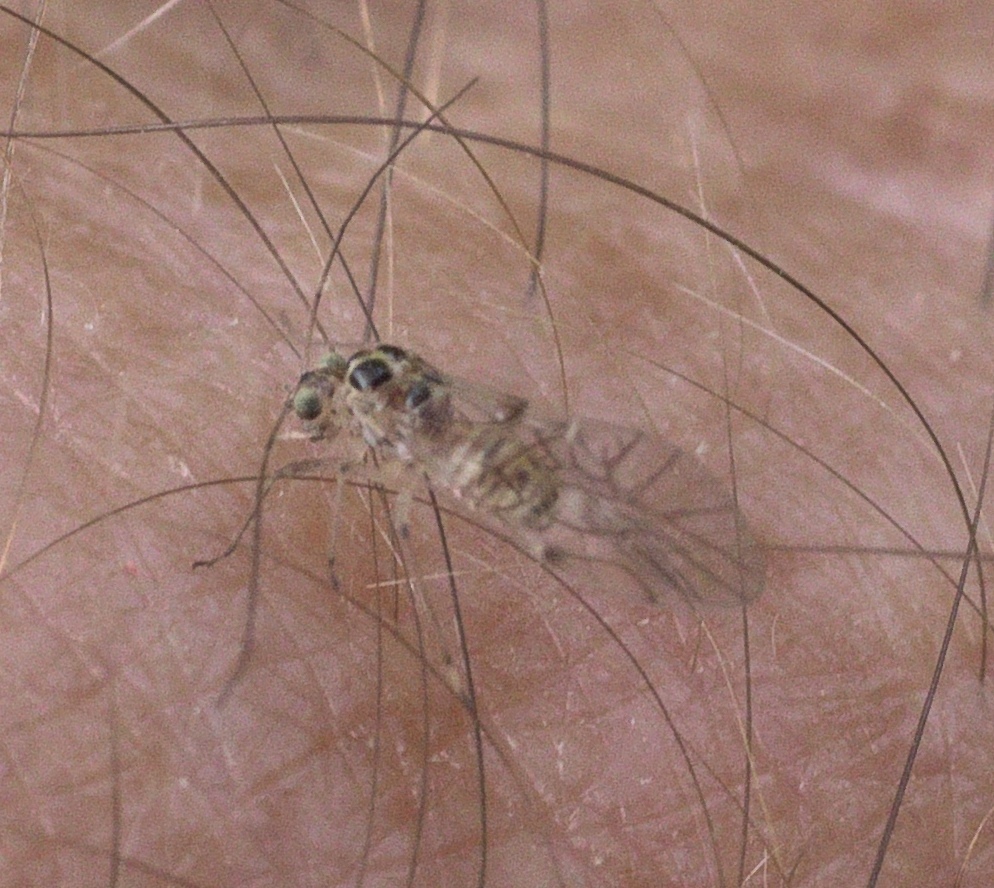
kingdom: Animalia
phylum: Arthropoda
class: Insecta
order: Psocodea
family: Dasydemellidae
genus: Teliapsocus
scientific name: Teliapsocus conterminus
